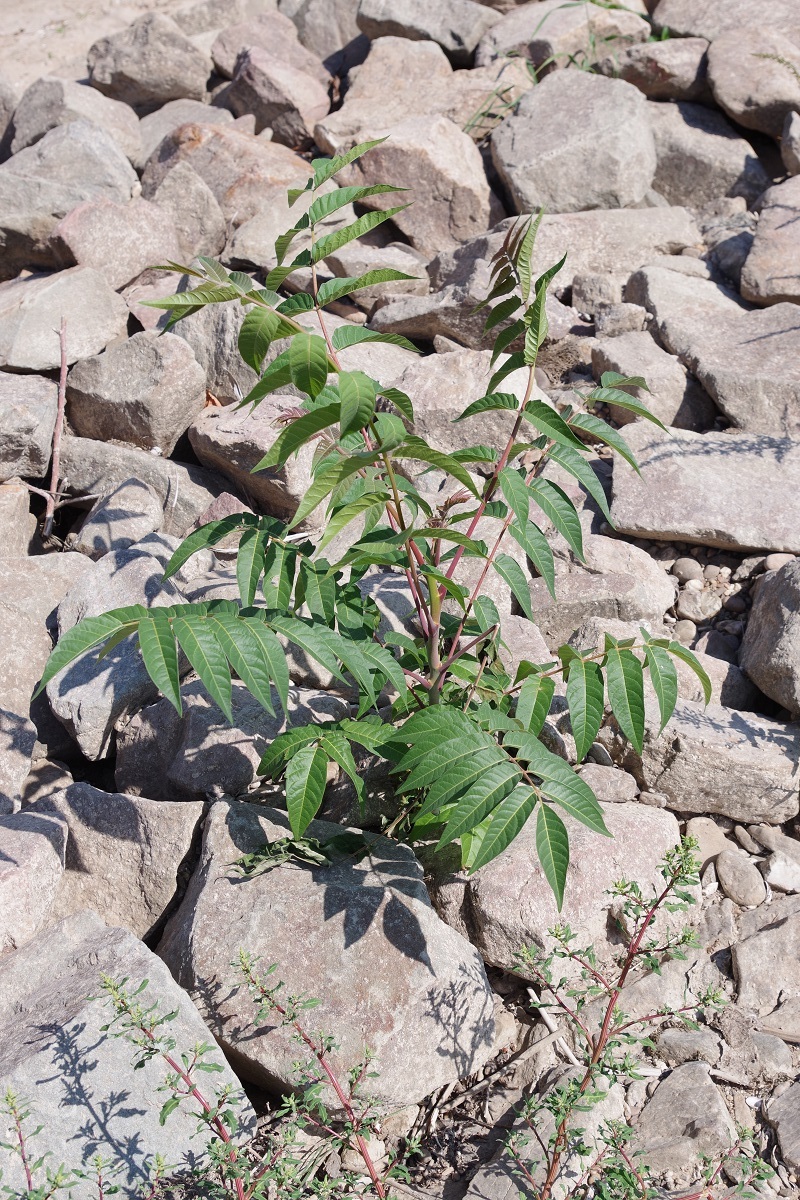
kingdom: Plantae
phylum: Tracheophyta
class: Magnoliopsida
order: Sapindales
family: Simaroubaceae
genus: Ailanthus
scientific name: Ailanthus altissima
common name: Tree-of-heaven
